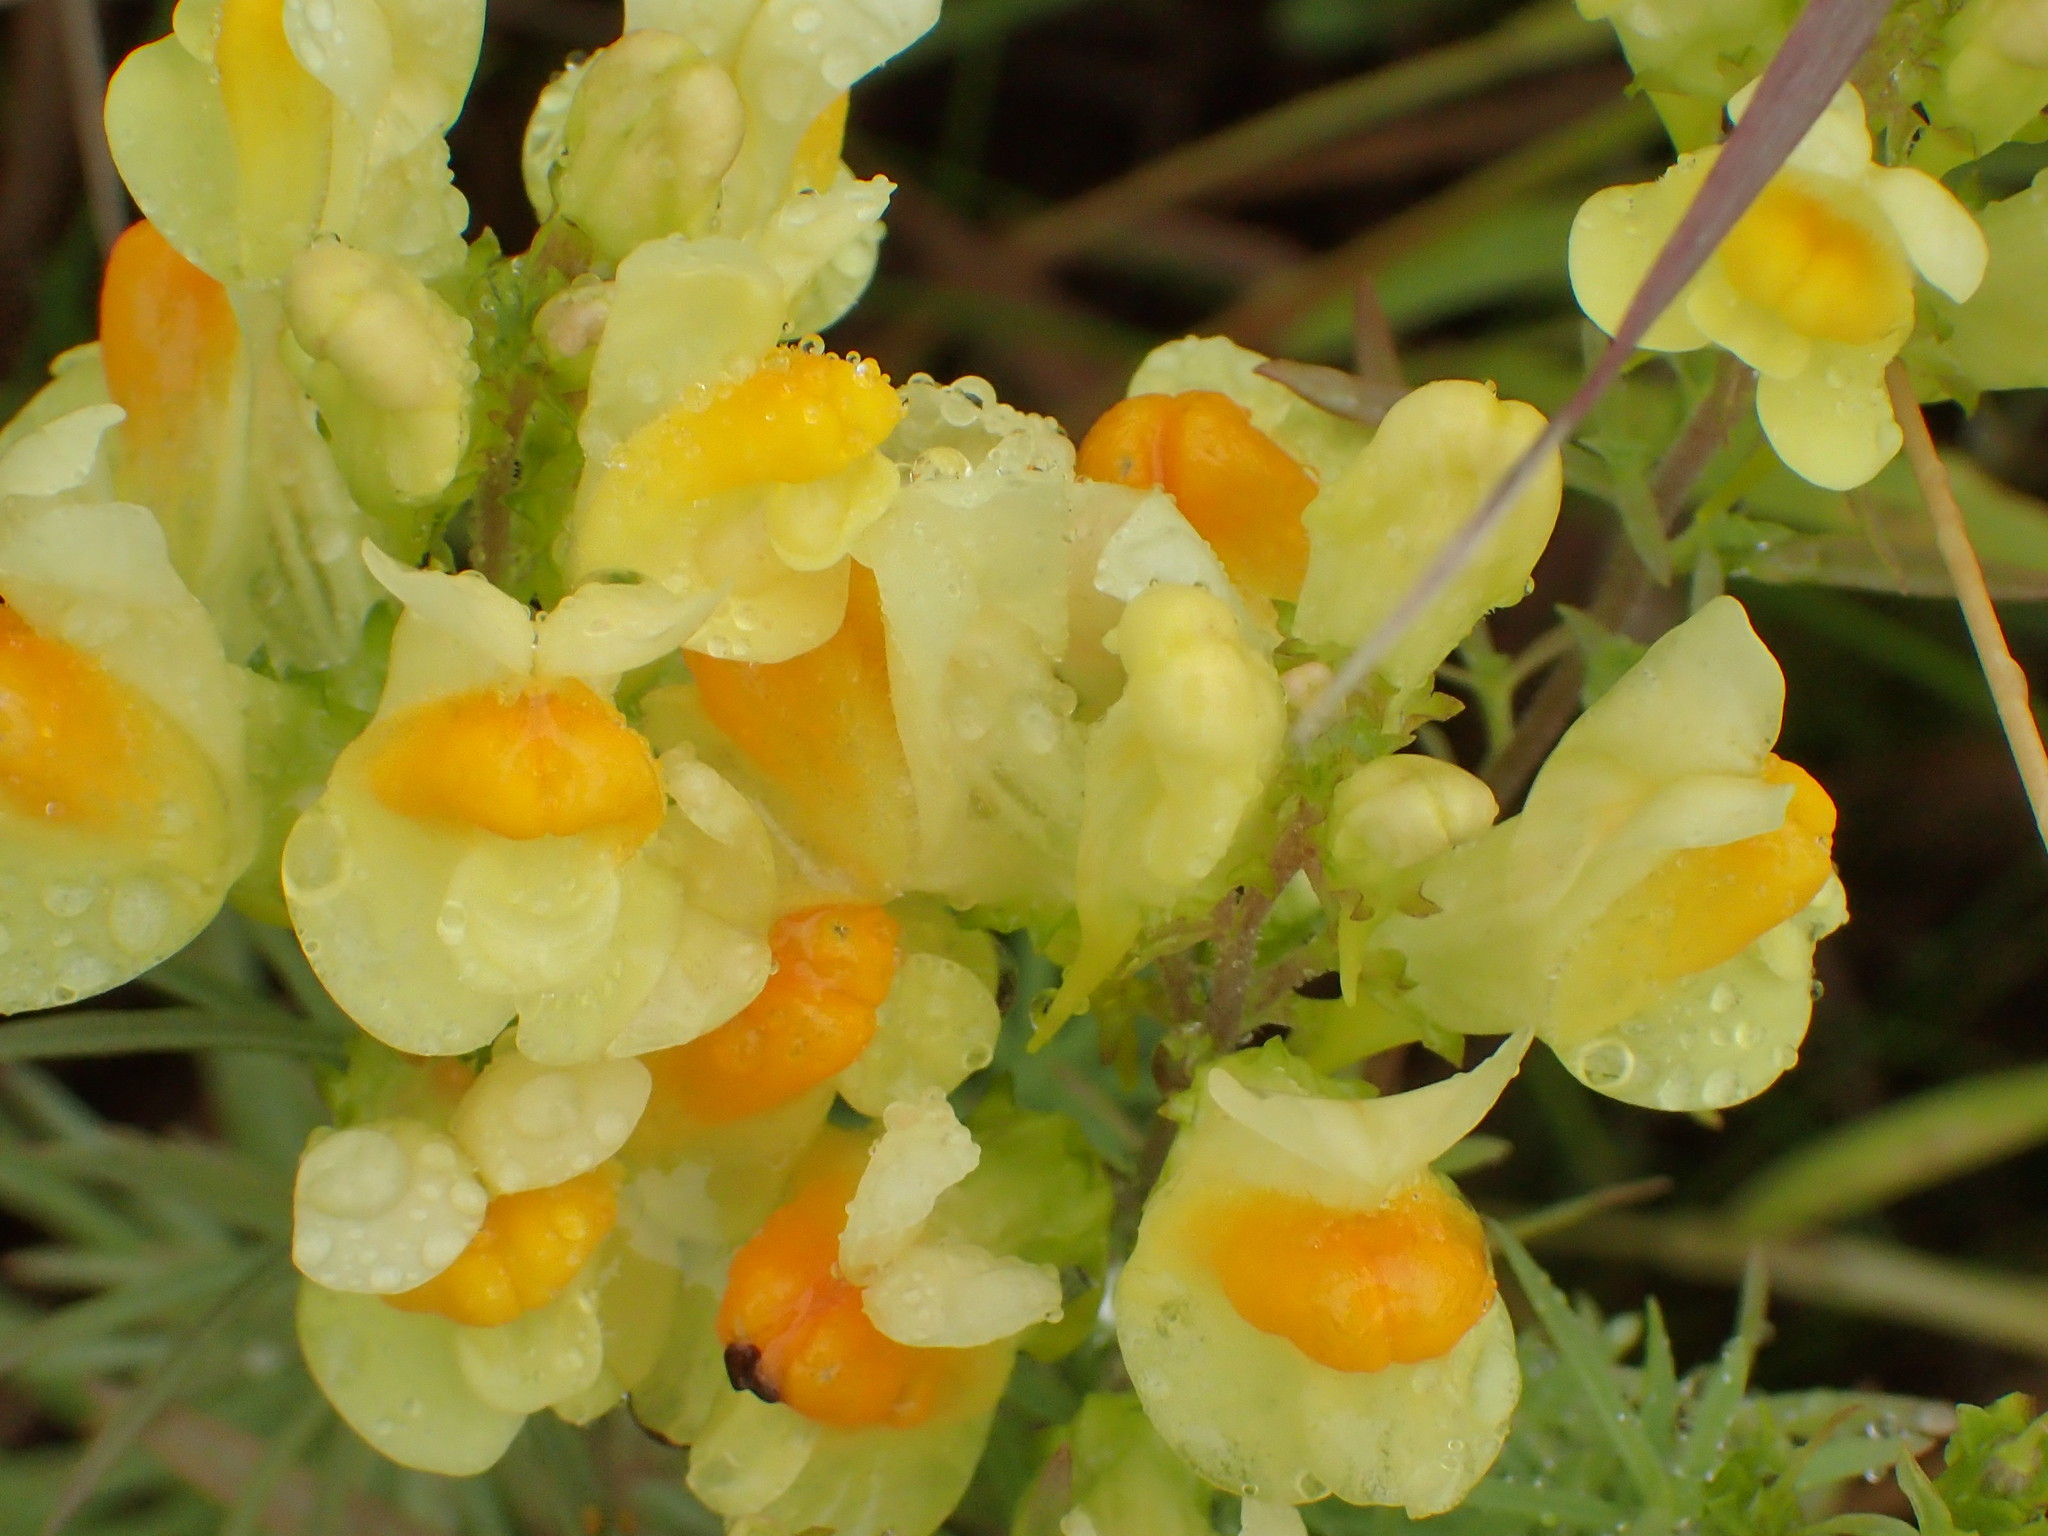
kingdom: Plantae
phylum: Tracheophyta
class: Magnoliopsida
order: Lamiales
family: Plantaginaceae
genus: Linaria
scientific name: Linaria vulgaris
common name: Butter and eggs
